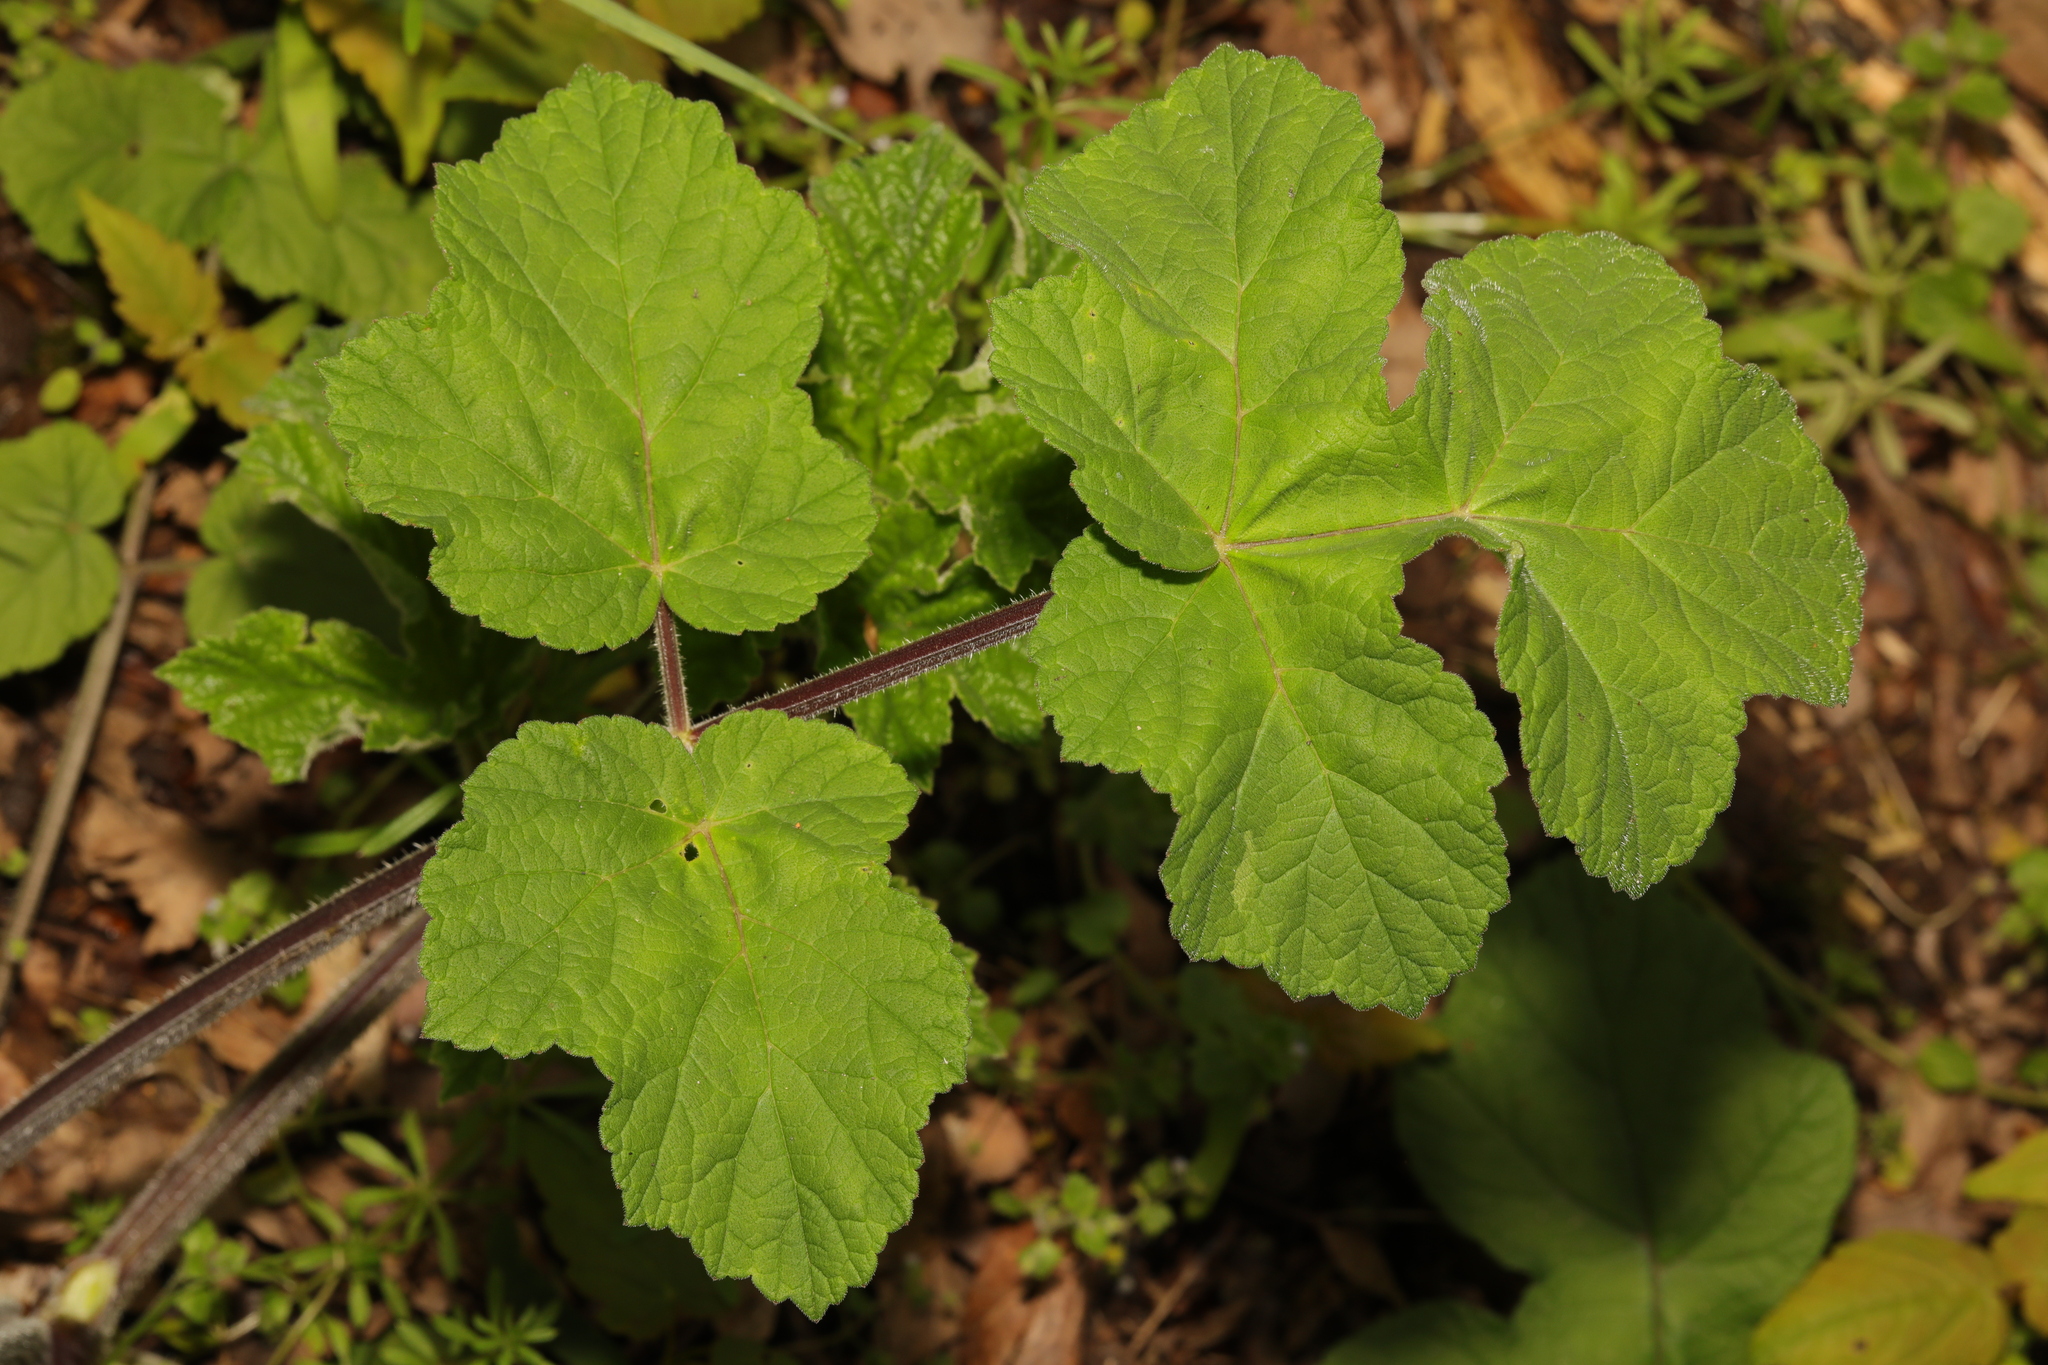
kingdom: Plantae
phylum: Tracheophyta
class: Magnoliopsida
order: Apiales
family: Apiaceae
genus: Heracleum
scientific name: Heracleum sphondylium
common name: Hogweed
